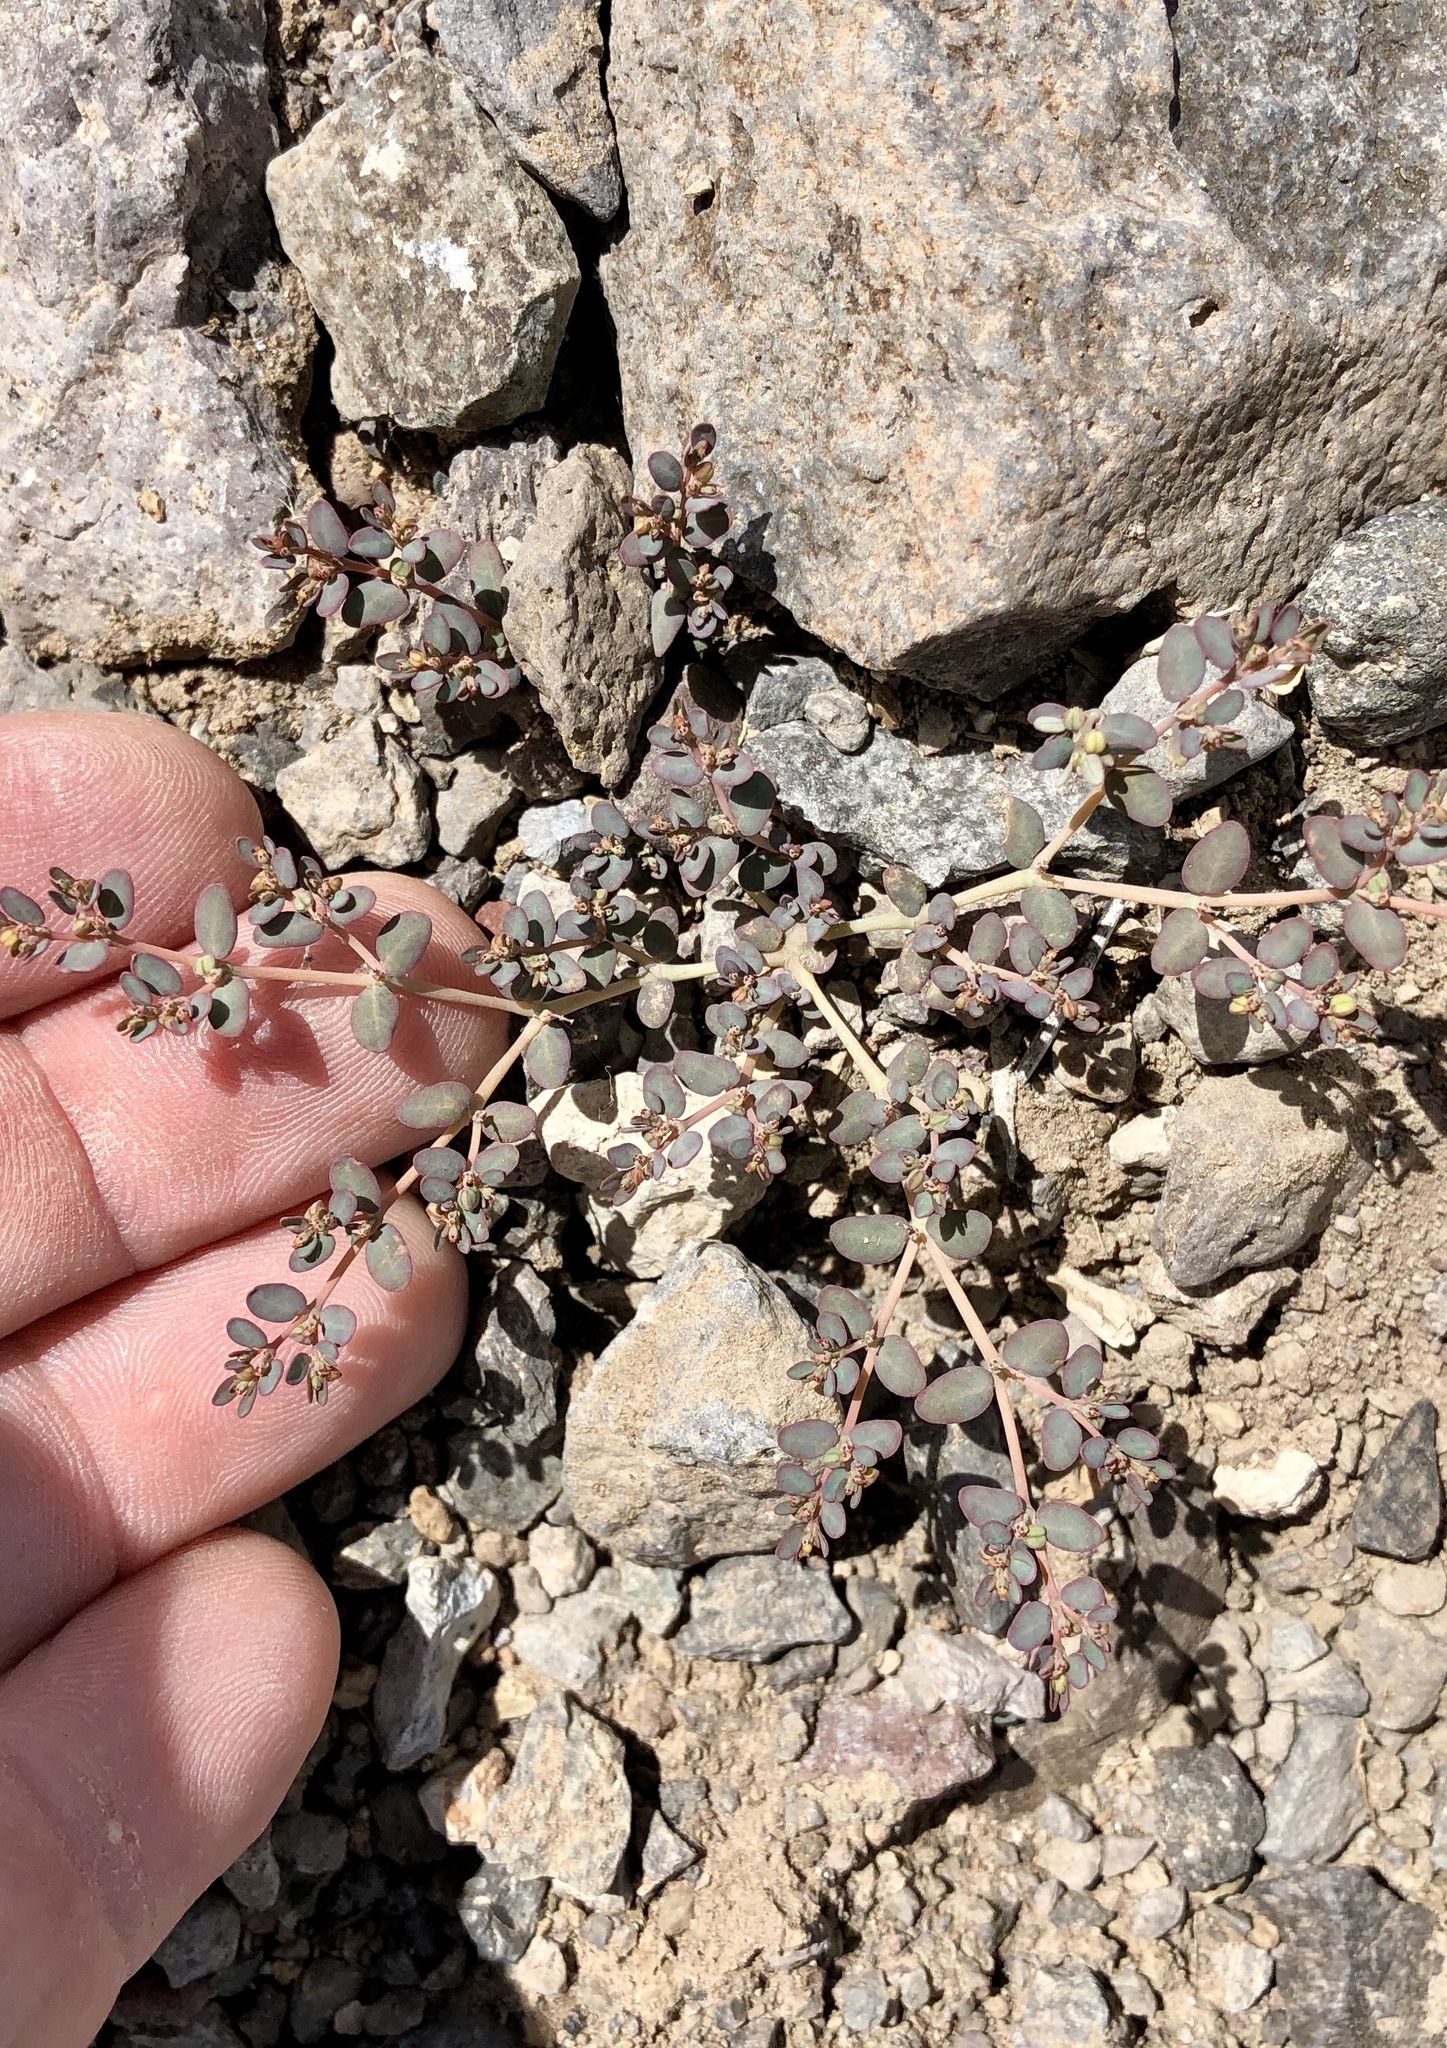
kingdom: Plantae
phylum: Tracheophyta
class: Magnoliopsida
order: Malpighiales
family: Euphorbiaceae
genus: Euphorbia
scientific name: Euphorbia micromera
